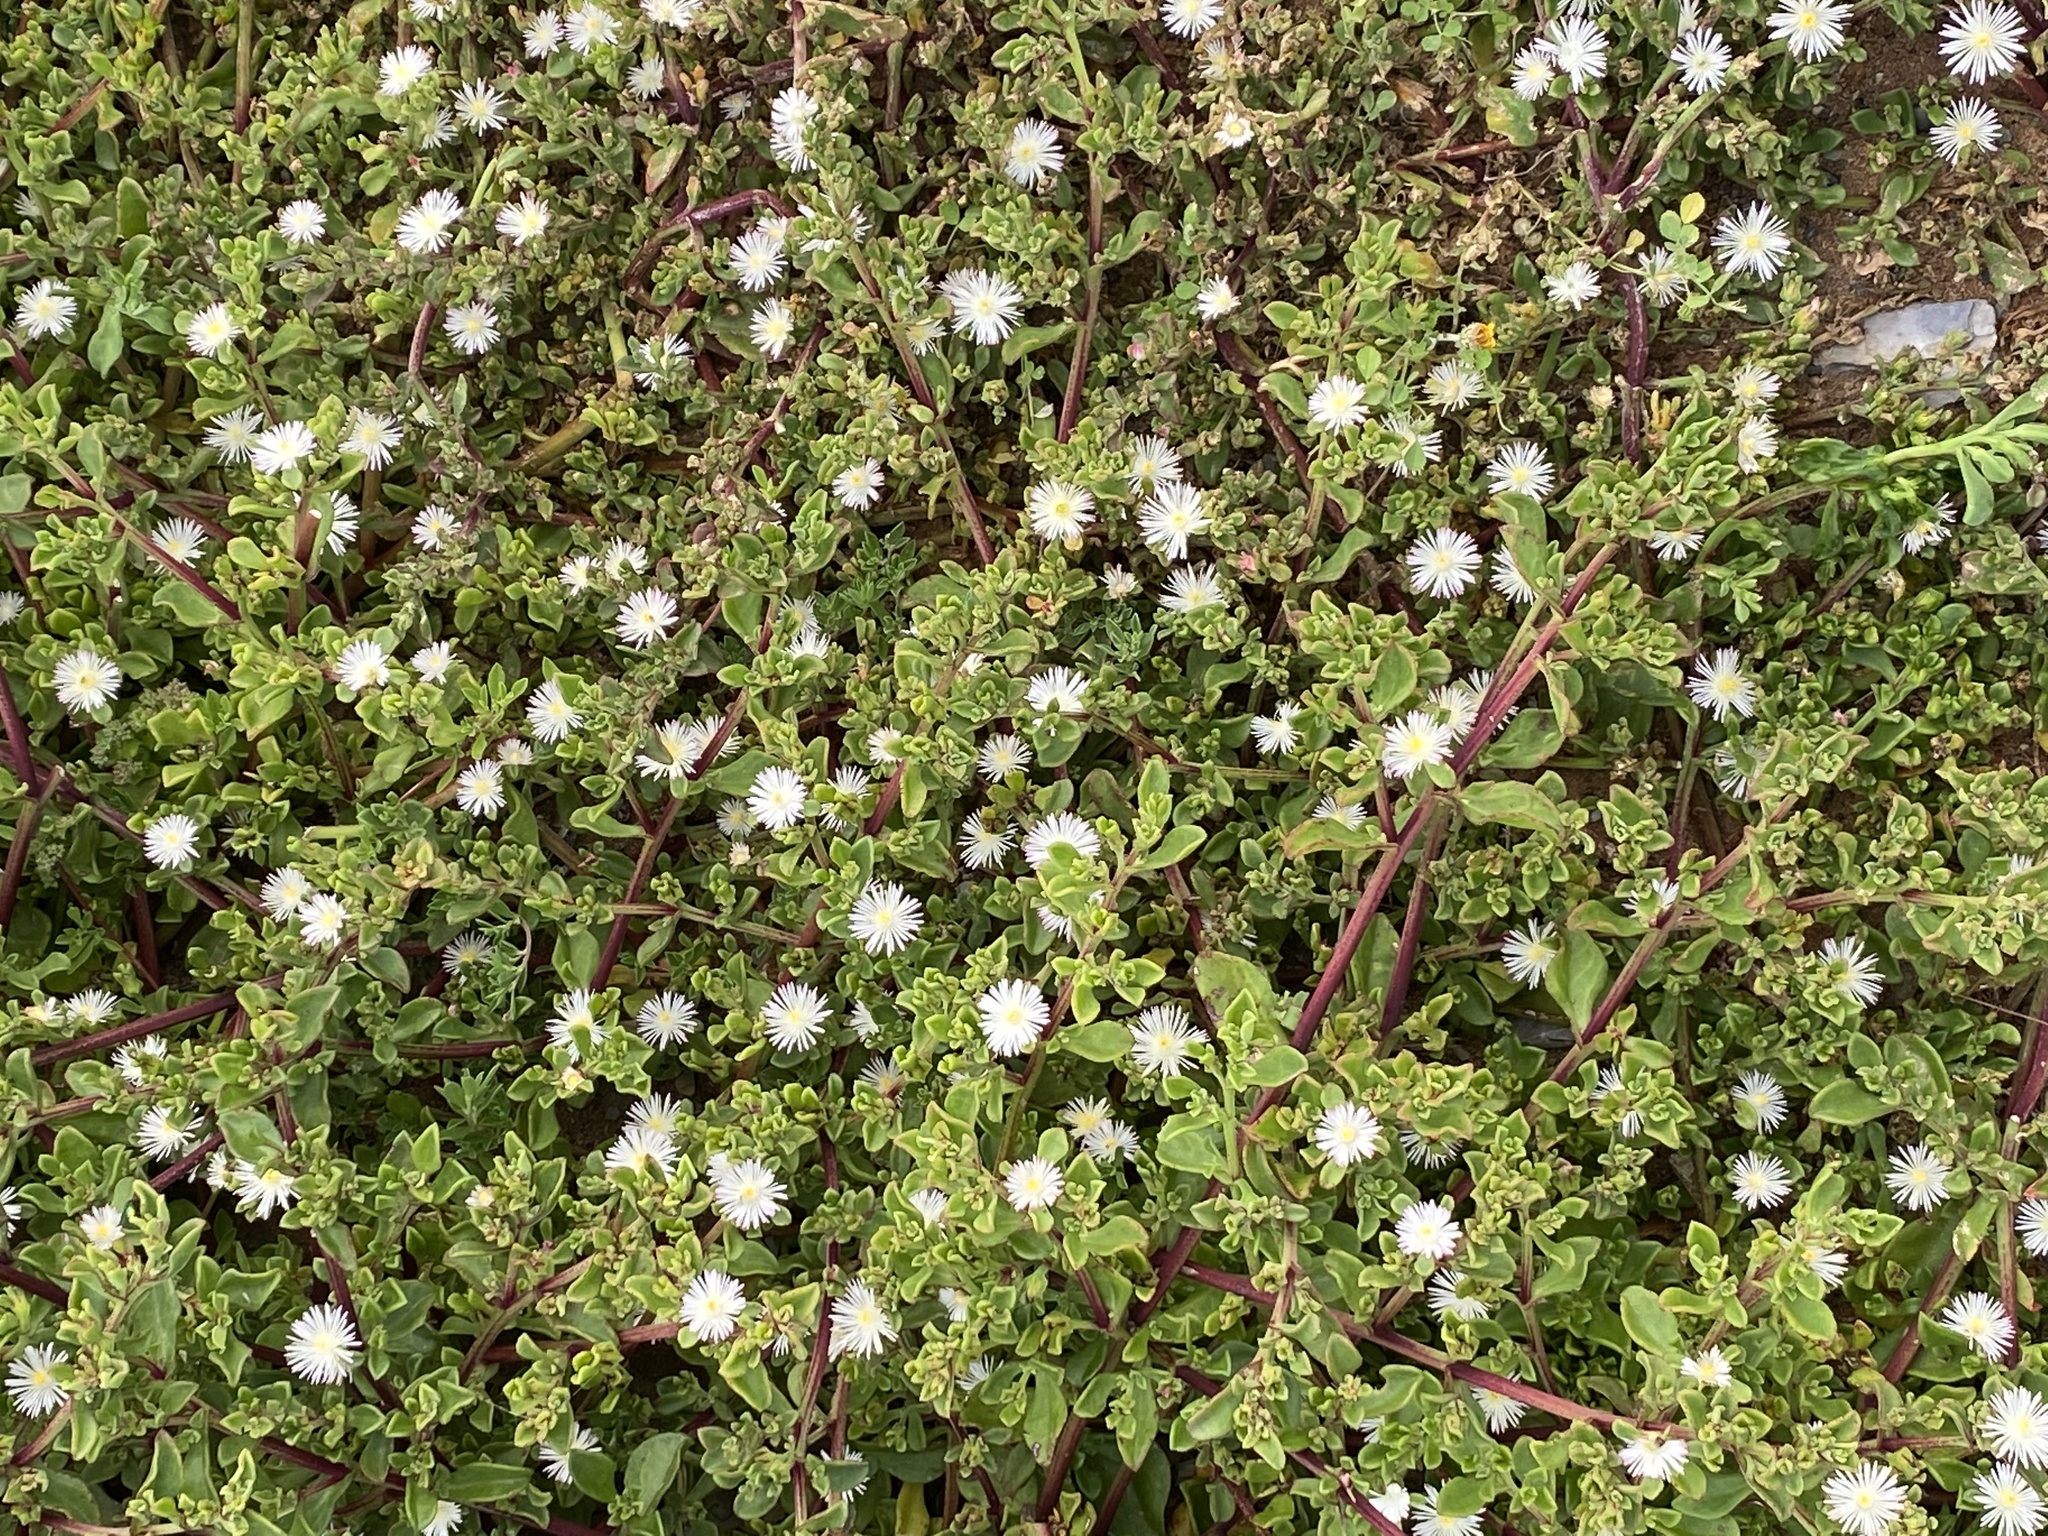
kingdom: Plantae
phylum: Tracheophyta
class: Magnoliopsida
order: Caryophyllales
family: Aizoaceae
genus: Mesembryanthemum
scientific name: Mesembryanthemum aitonis
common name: Angled iceplant
